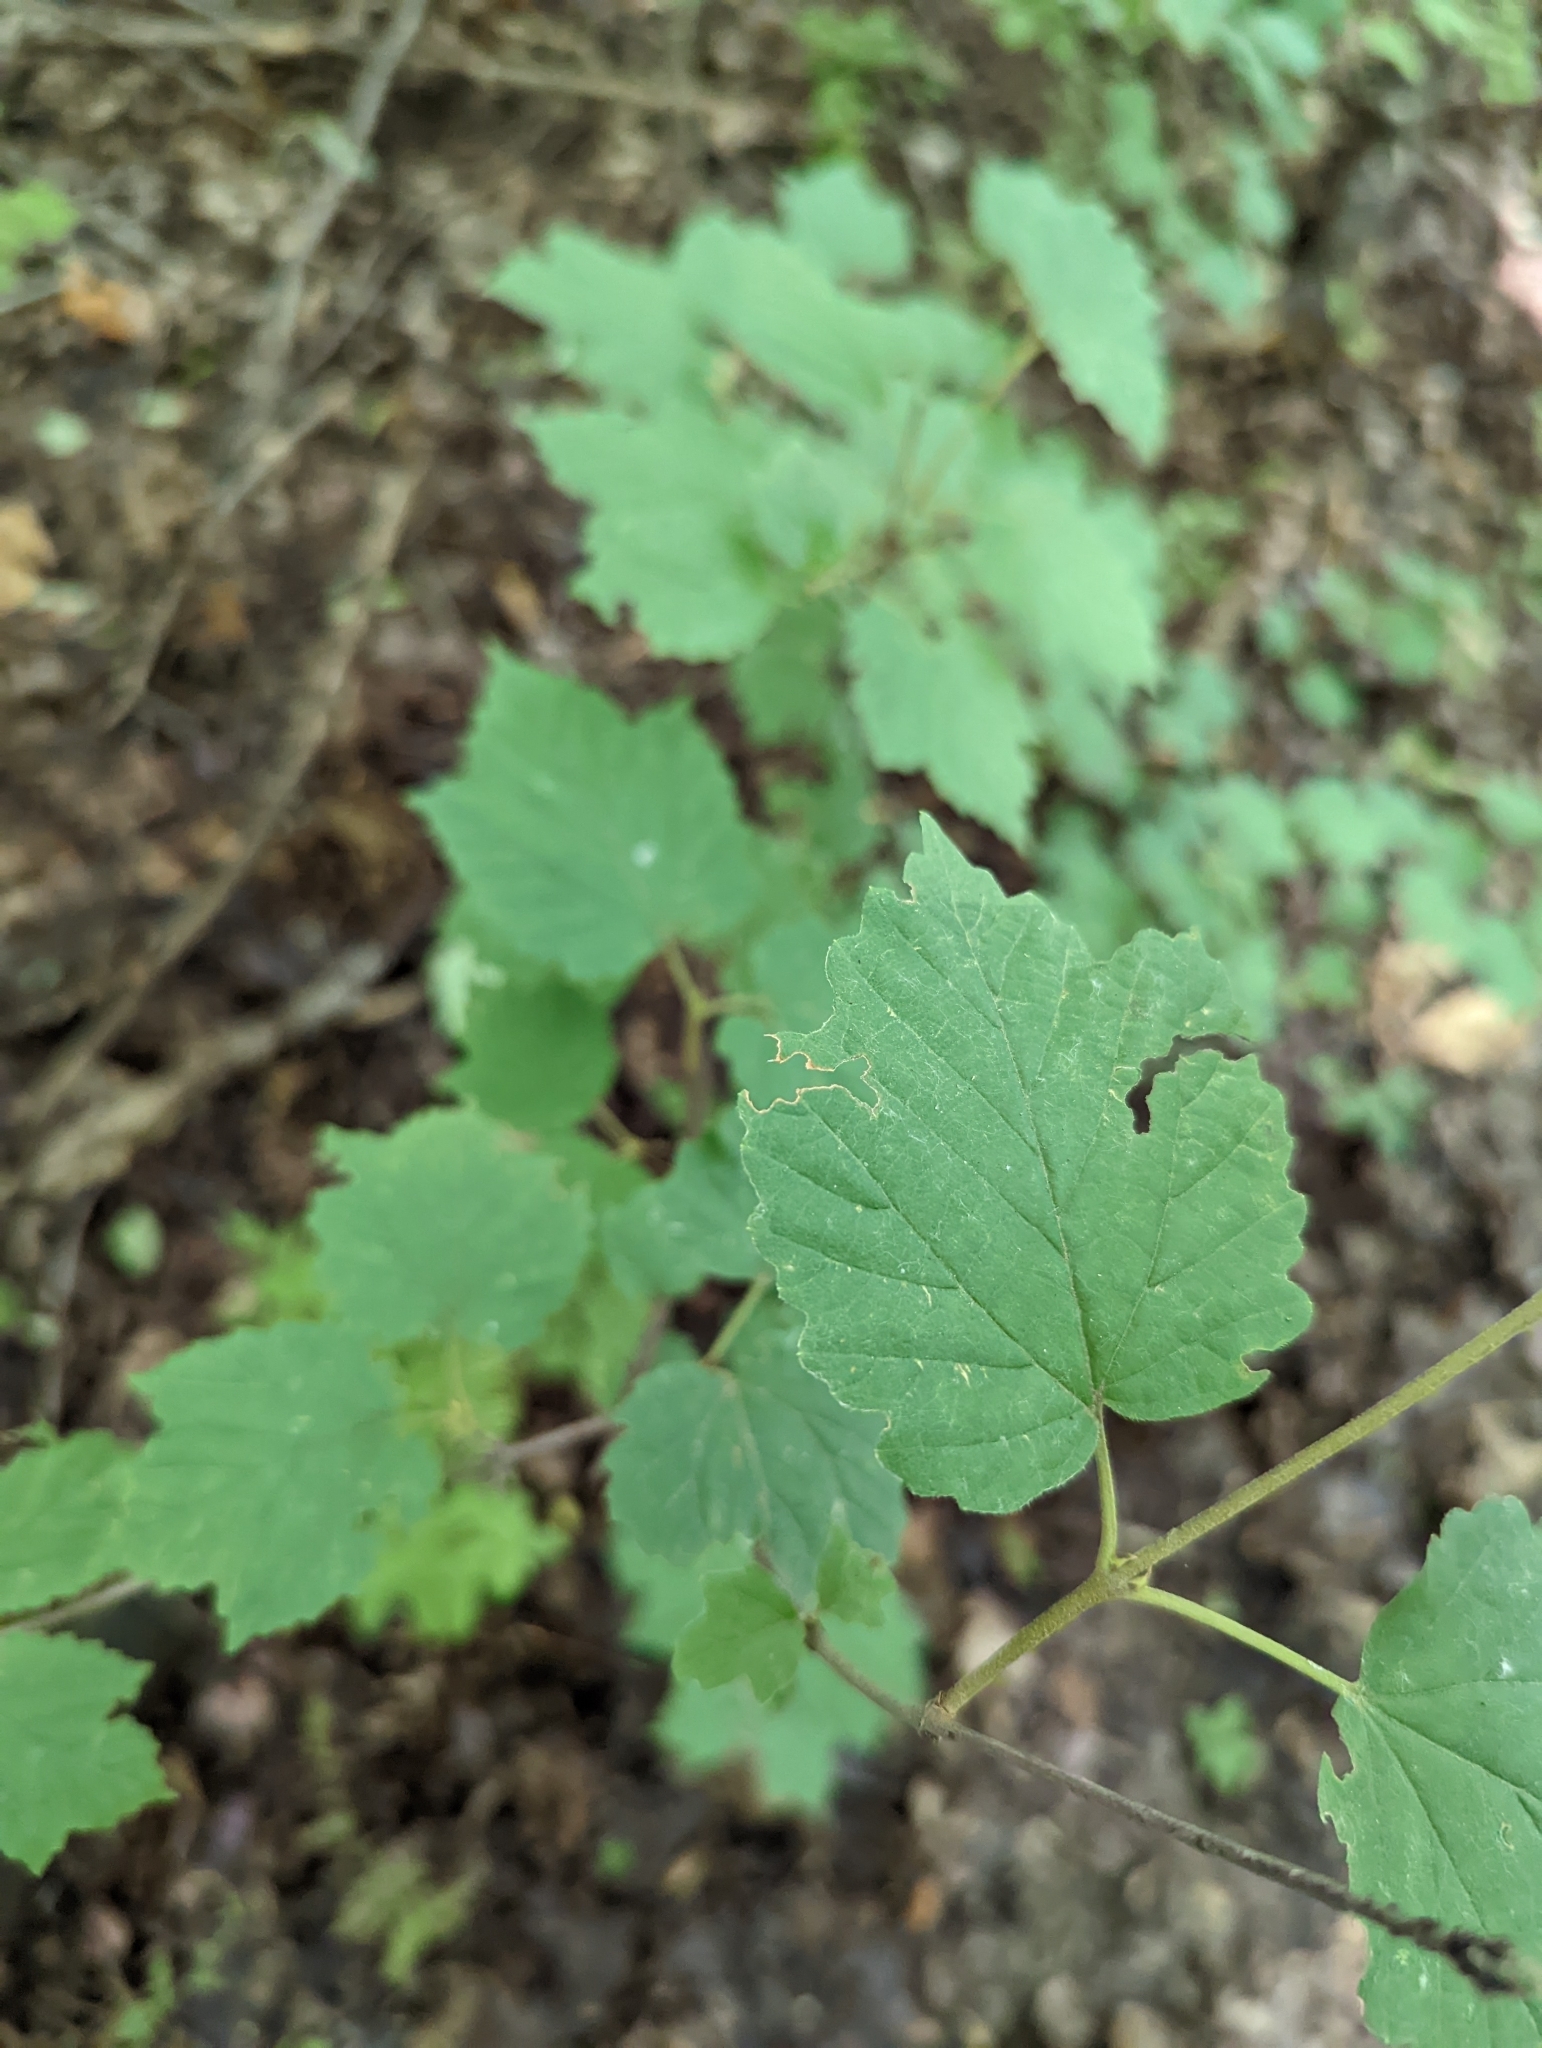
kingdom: Plantae
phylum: Tracheophyta
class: Magnoliopsida
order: Dipsacales
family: Viburnaceae
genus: Viburnum
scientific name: Viburnum acerifolium
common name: Dockmackie
